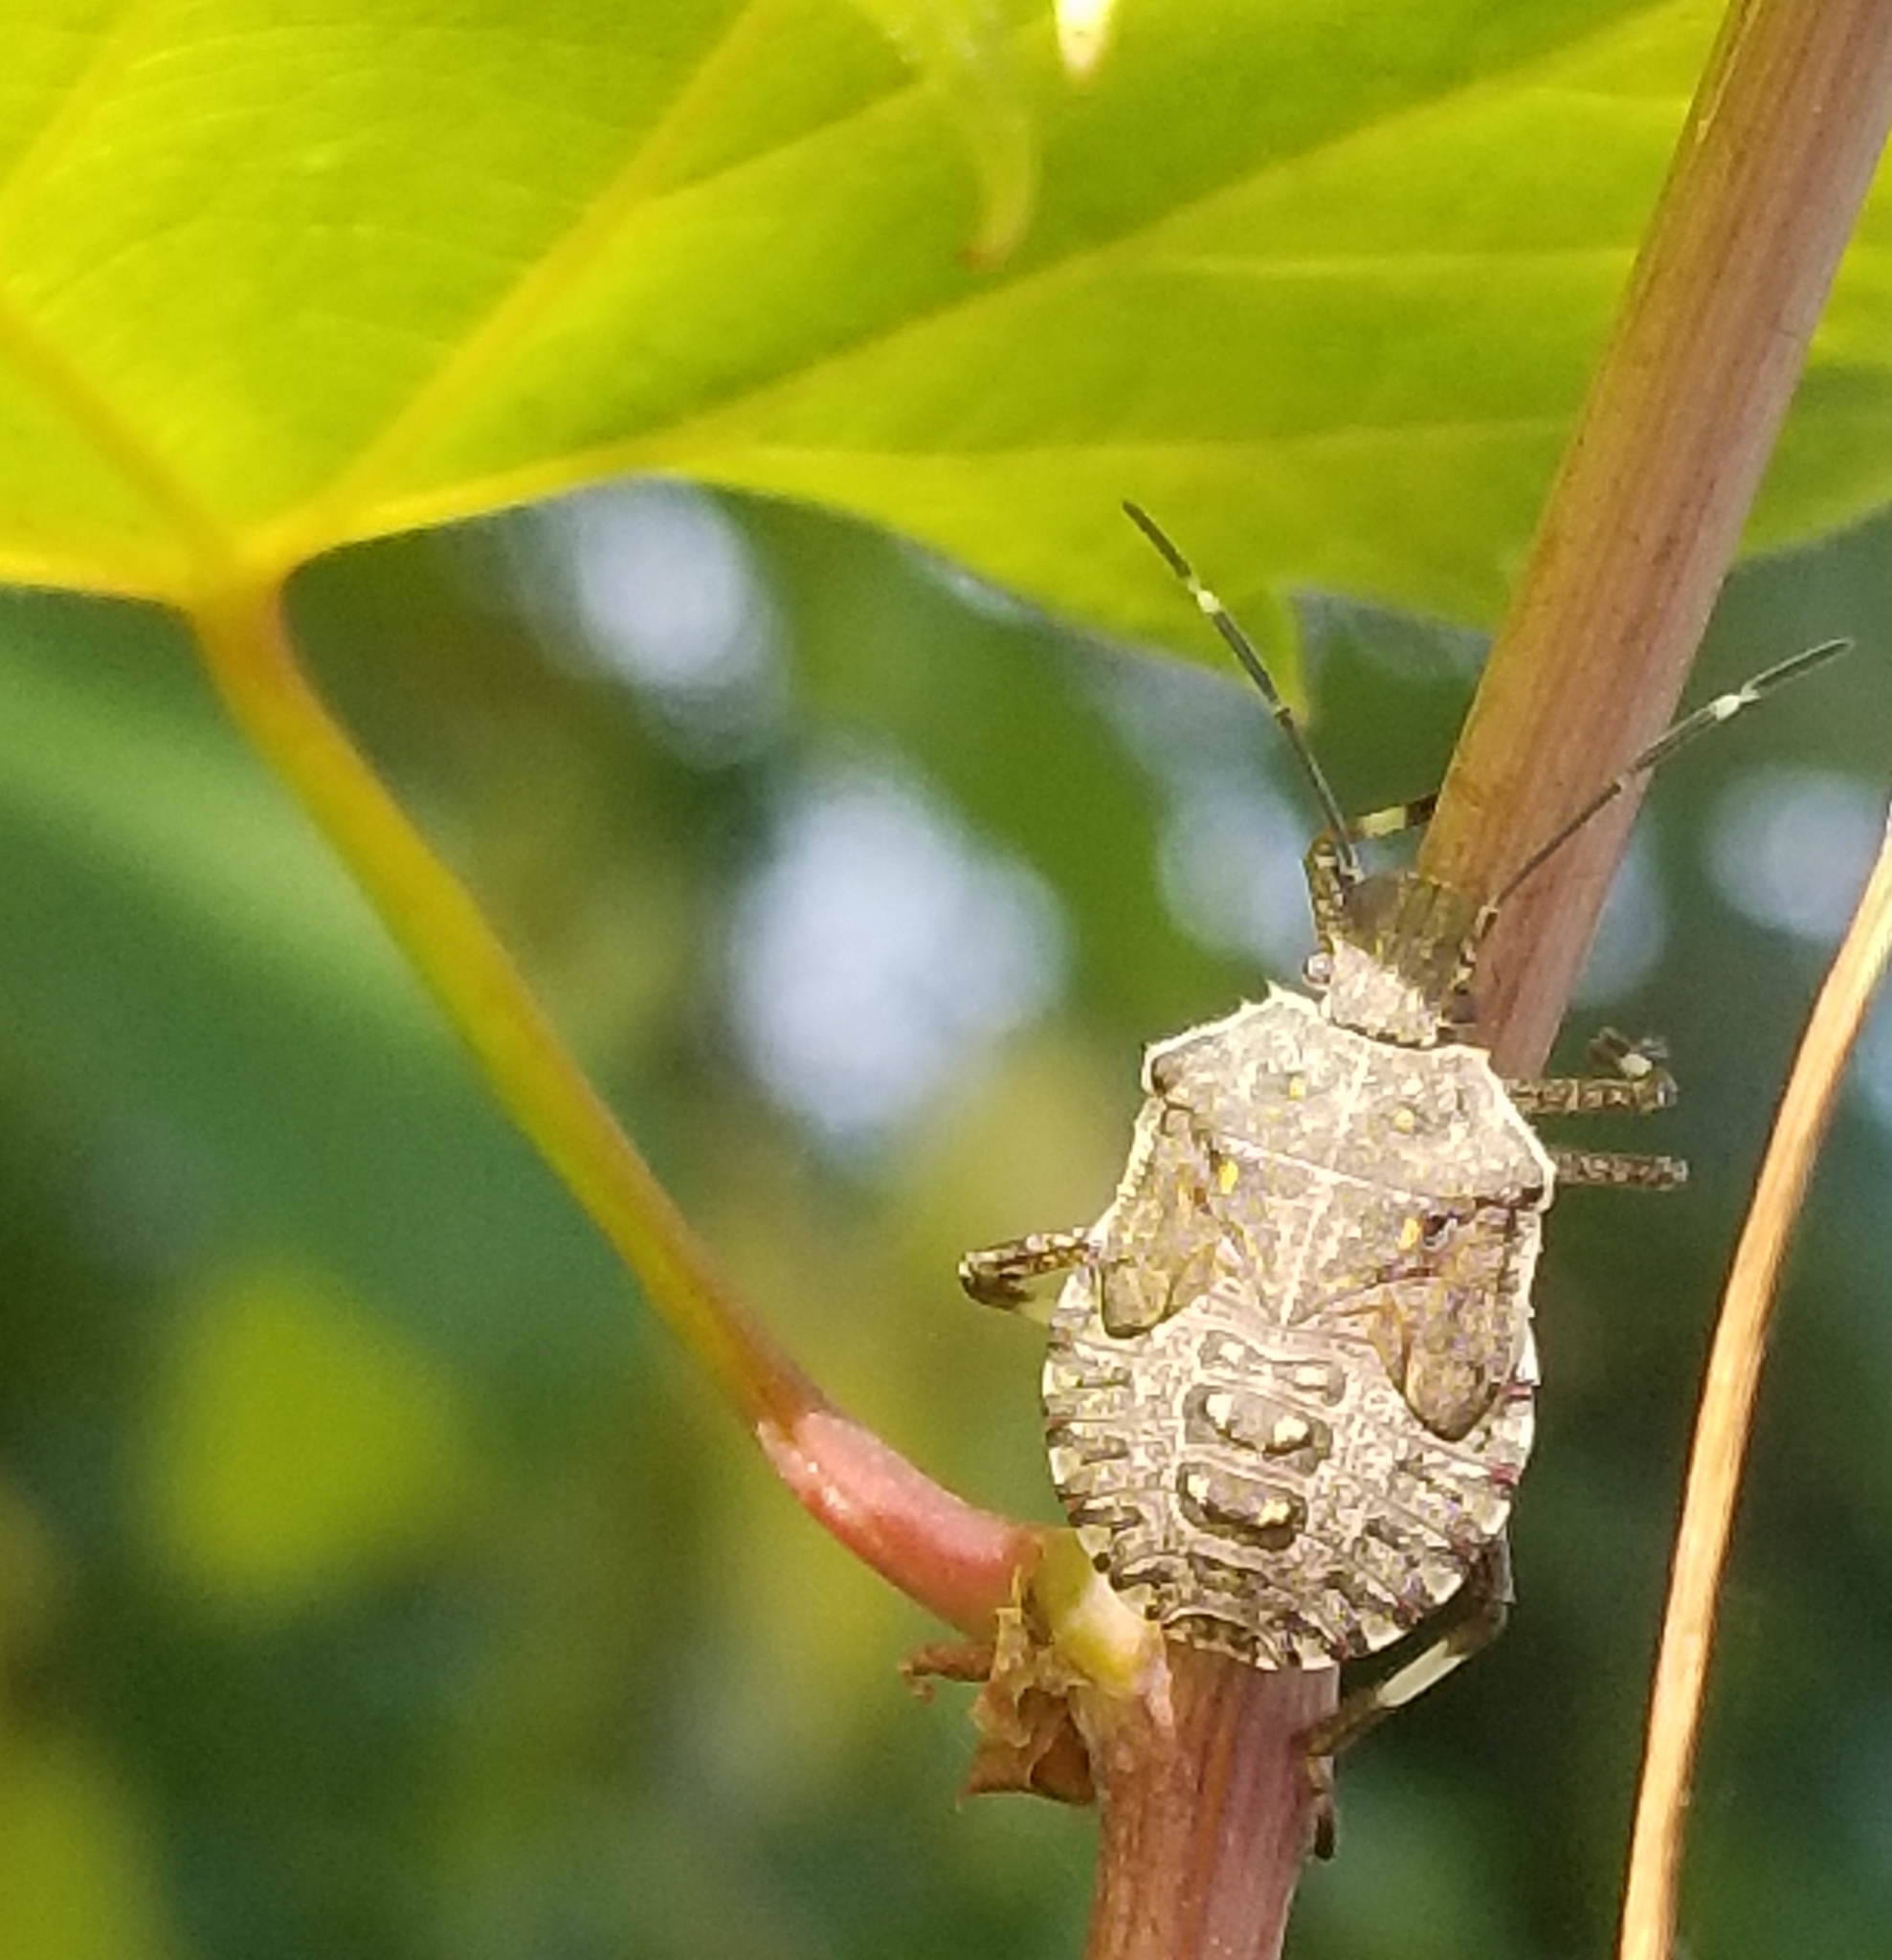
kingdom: Animalia
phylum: Arthropoda
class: Insecta
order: Hemiptera
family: Pentatomidae
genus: Halyomorpha
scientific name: Halyomorpha halys
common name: Brown marmorated stink bug
